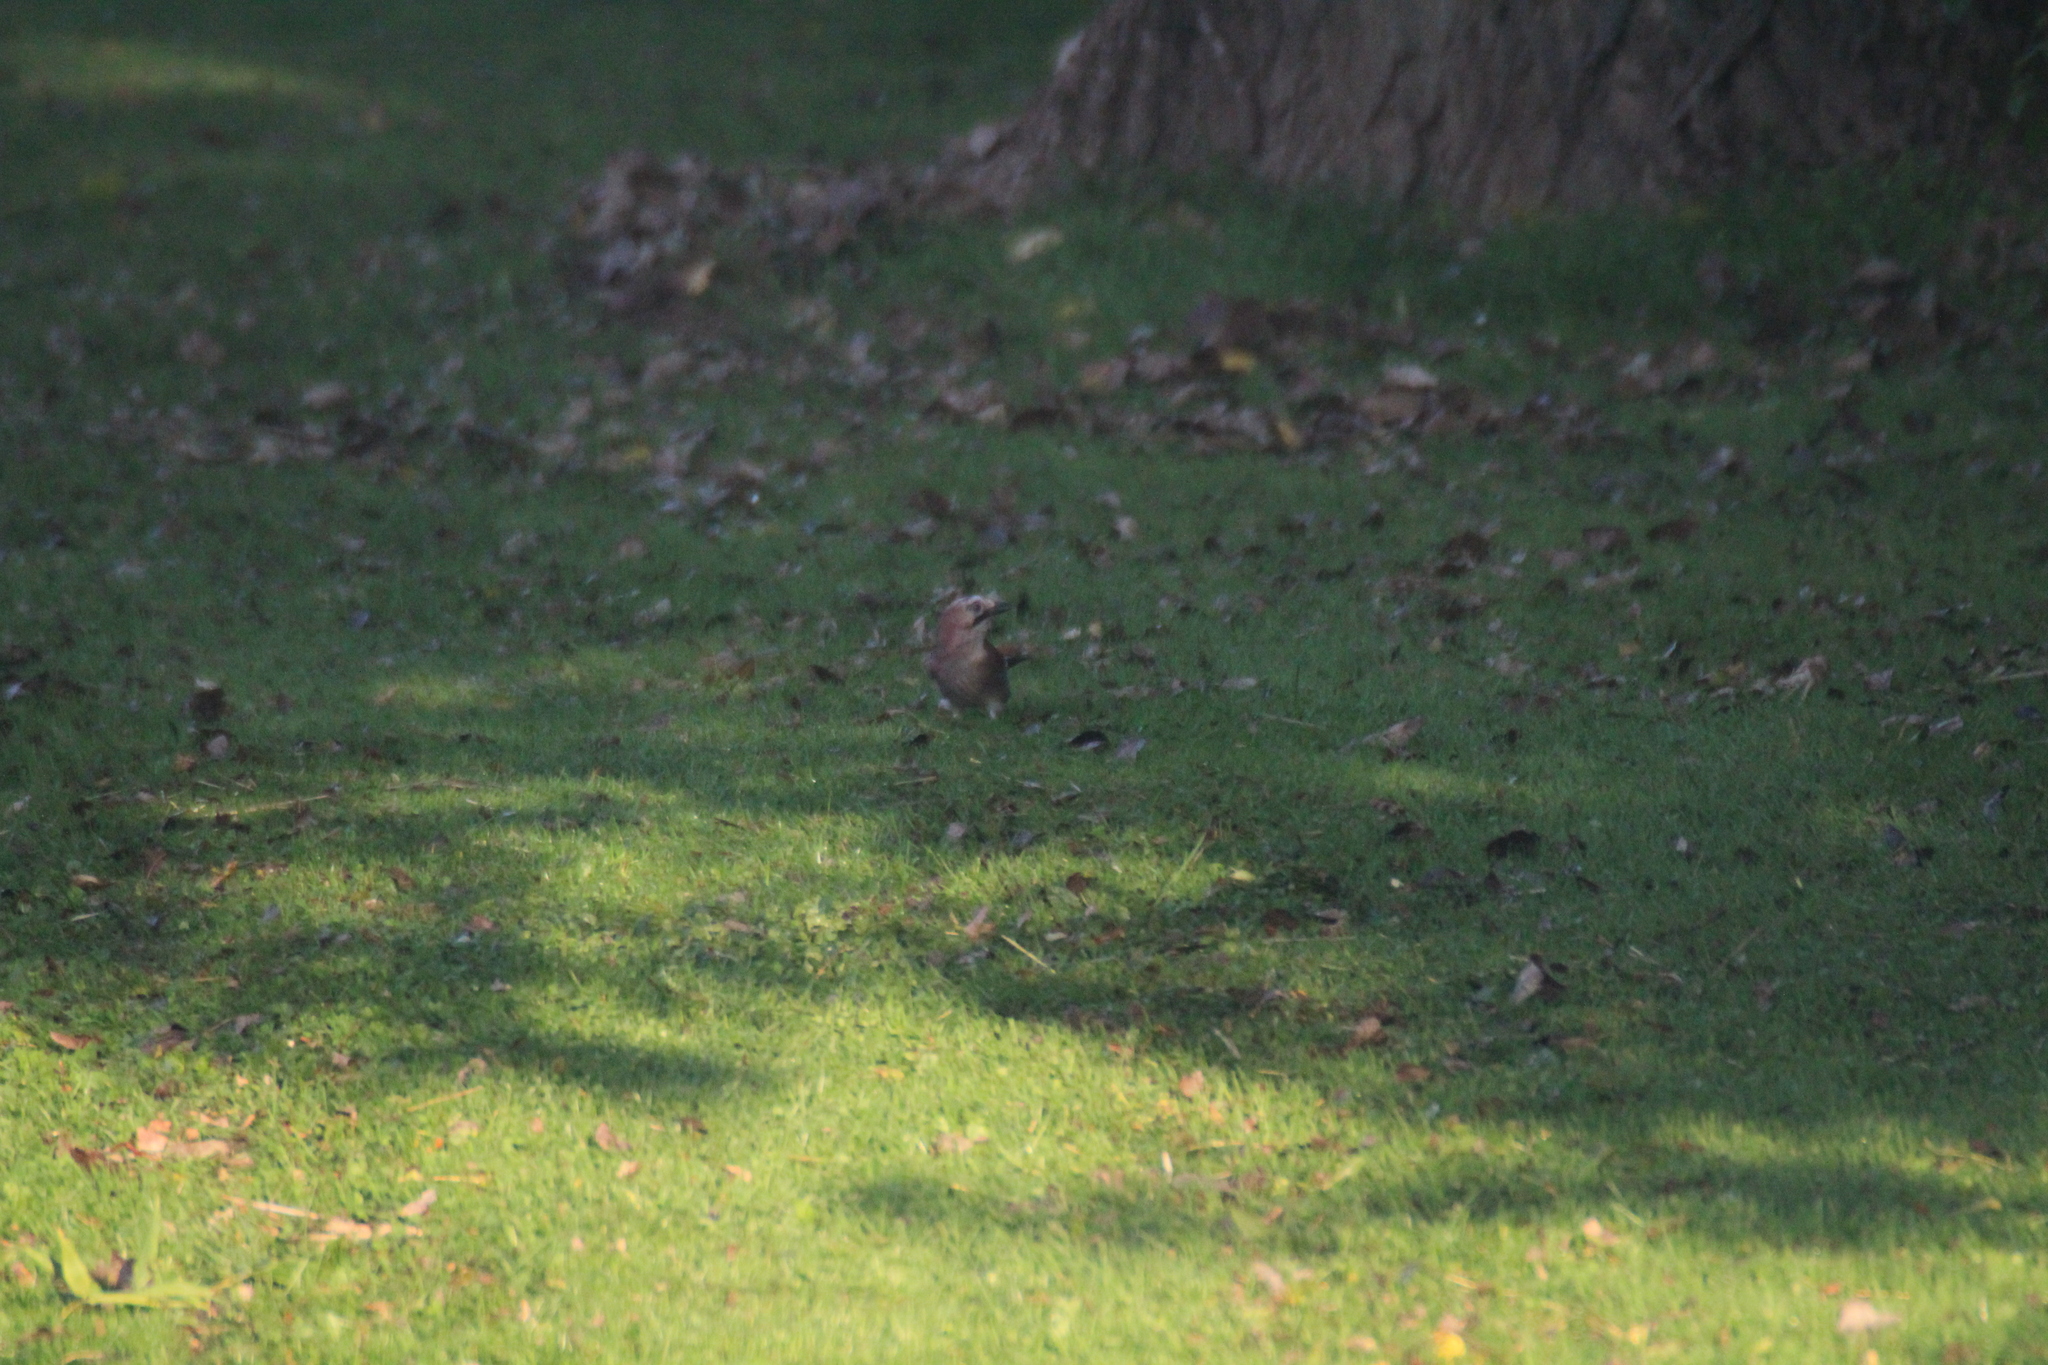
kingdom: Animalia
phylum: Chordata
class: Aves
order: Passeriformes
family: Corvidae
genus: Garrulus
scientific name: Garrulus glandarius
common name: Eurasian jay
